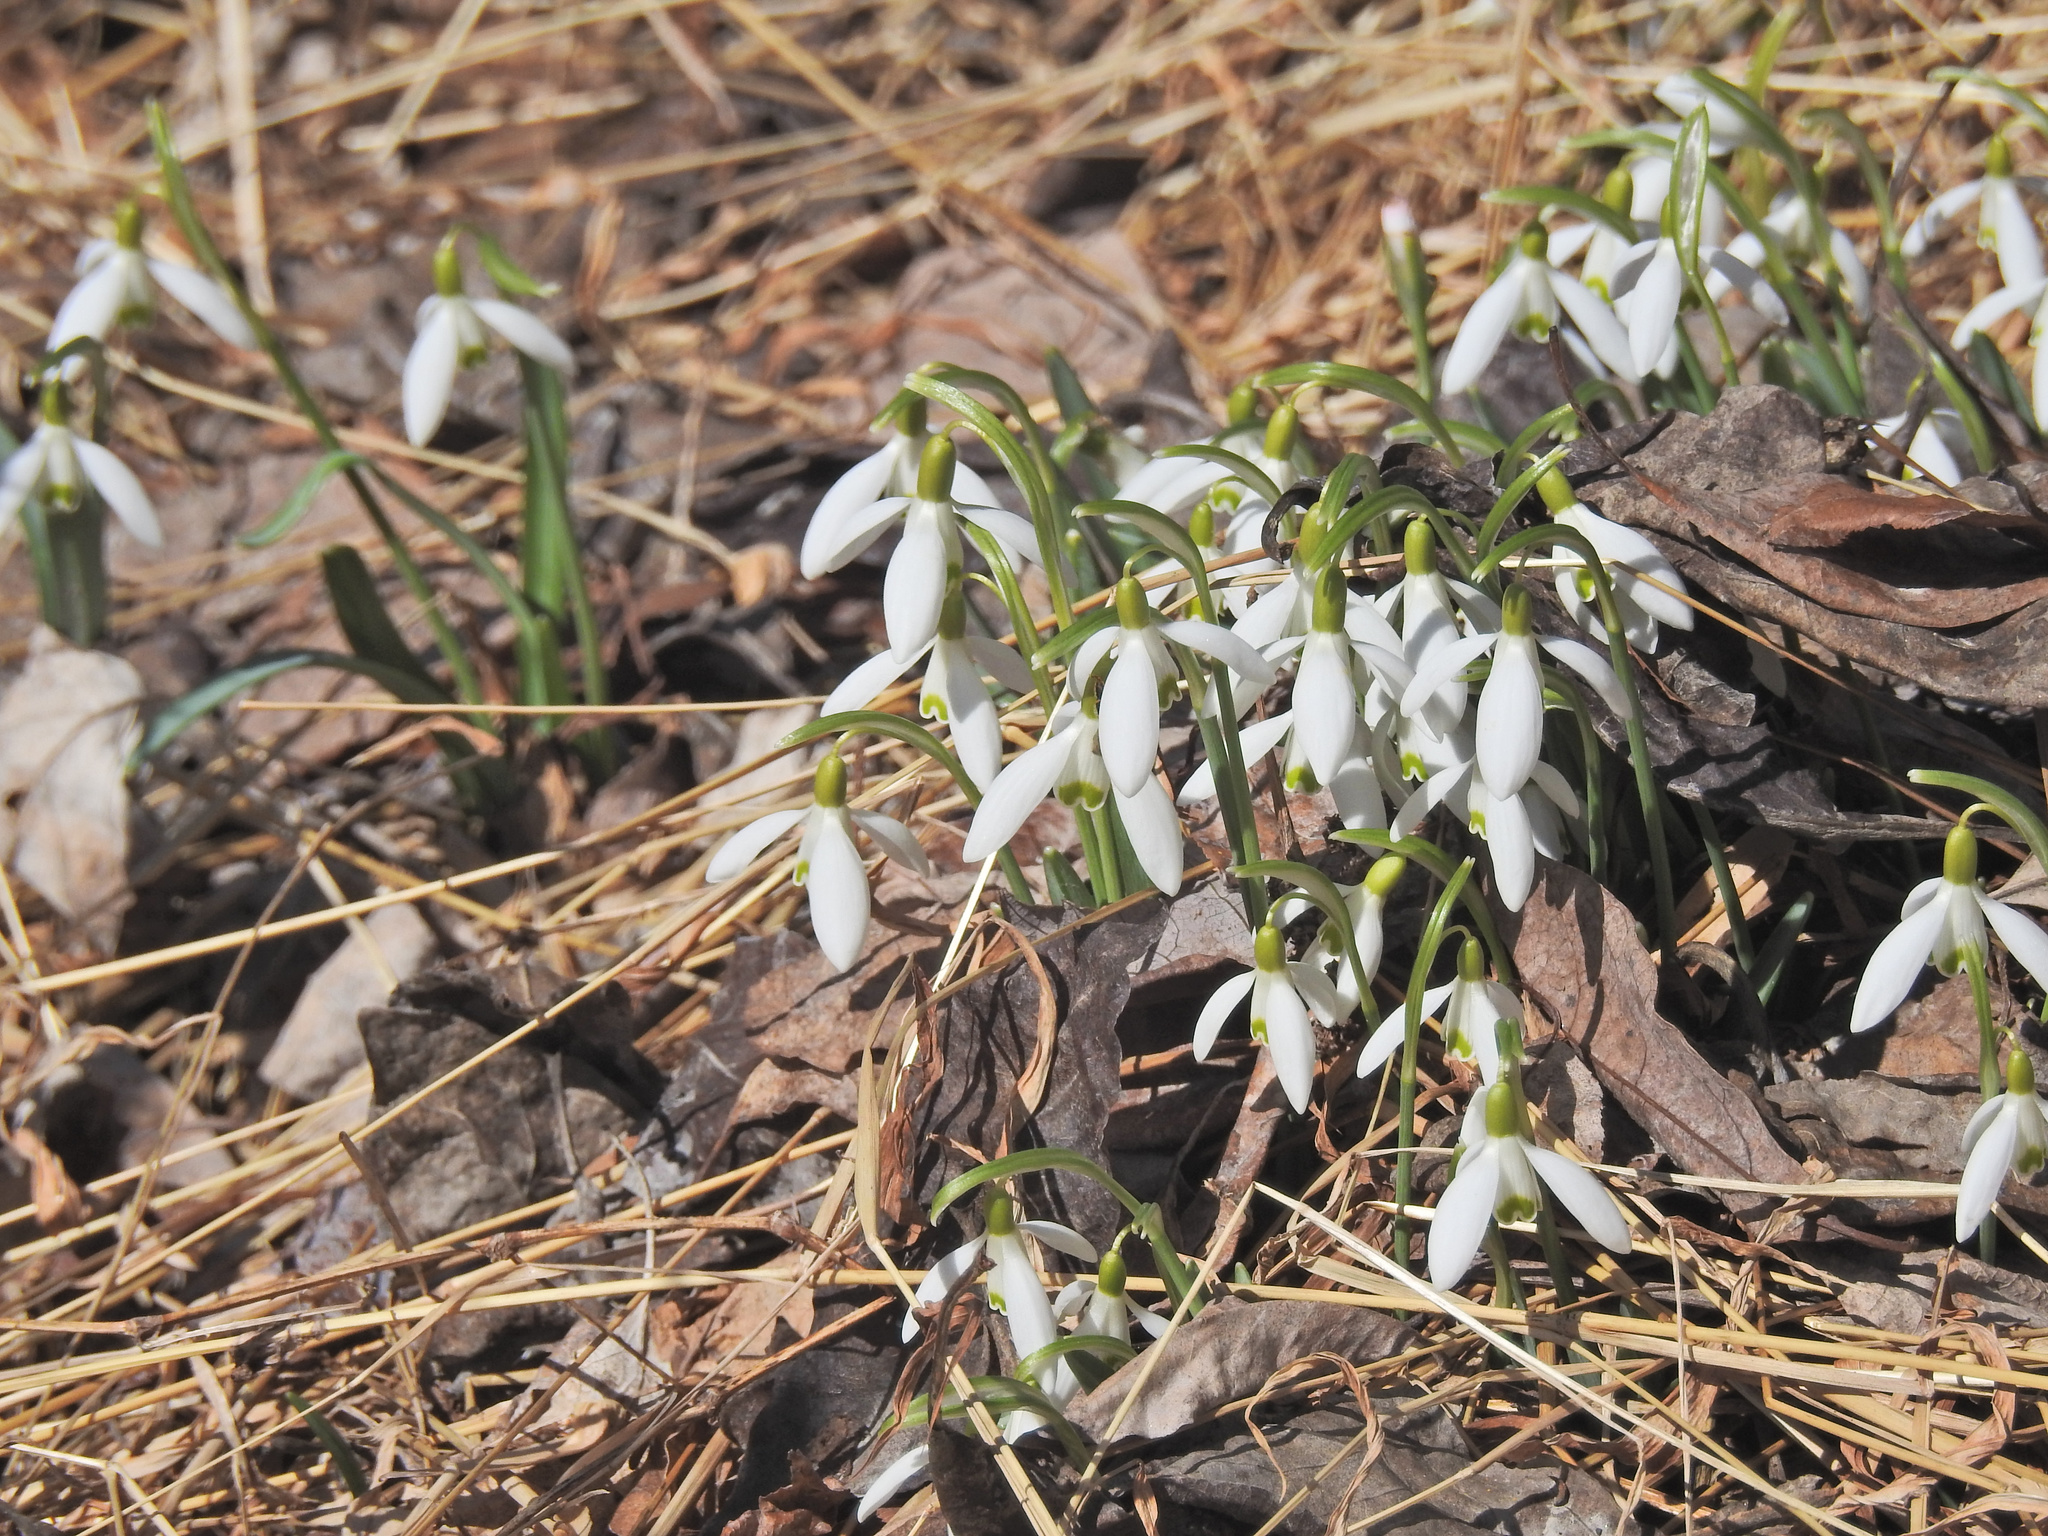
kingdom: Plantae
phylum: Tracheophyta
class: Liliopsida
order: Asparagales
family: Amaryllidaceae
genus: Galanthus
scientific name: Galanthus nivalis
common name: Snowdrop
